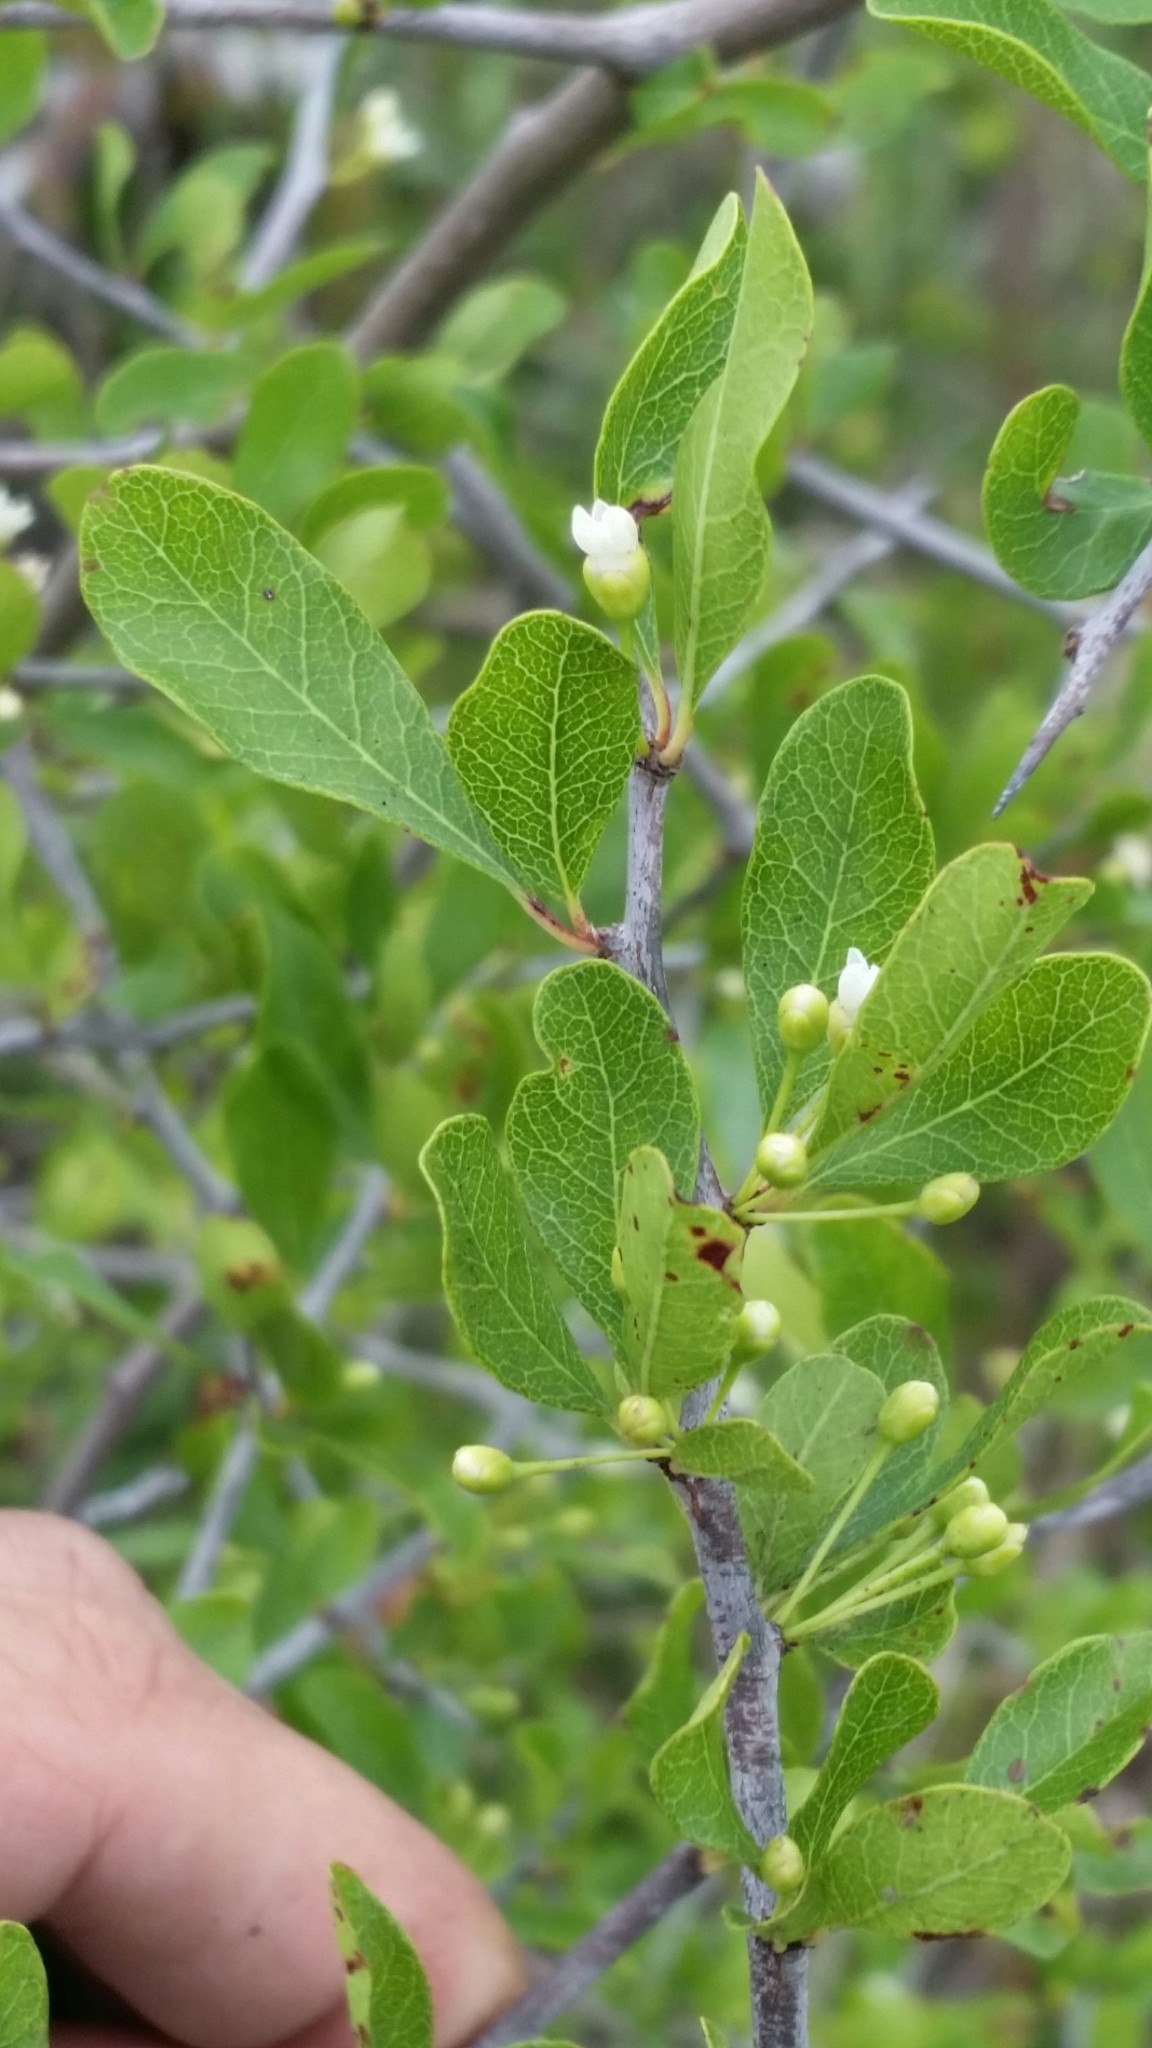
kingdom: Plantae
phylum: Tracheophyta
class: Magnoliopsida
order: Ericales
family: Sapotaceae
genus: Sideroxylon
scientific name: Sideroxylon reclinatum
